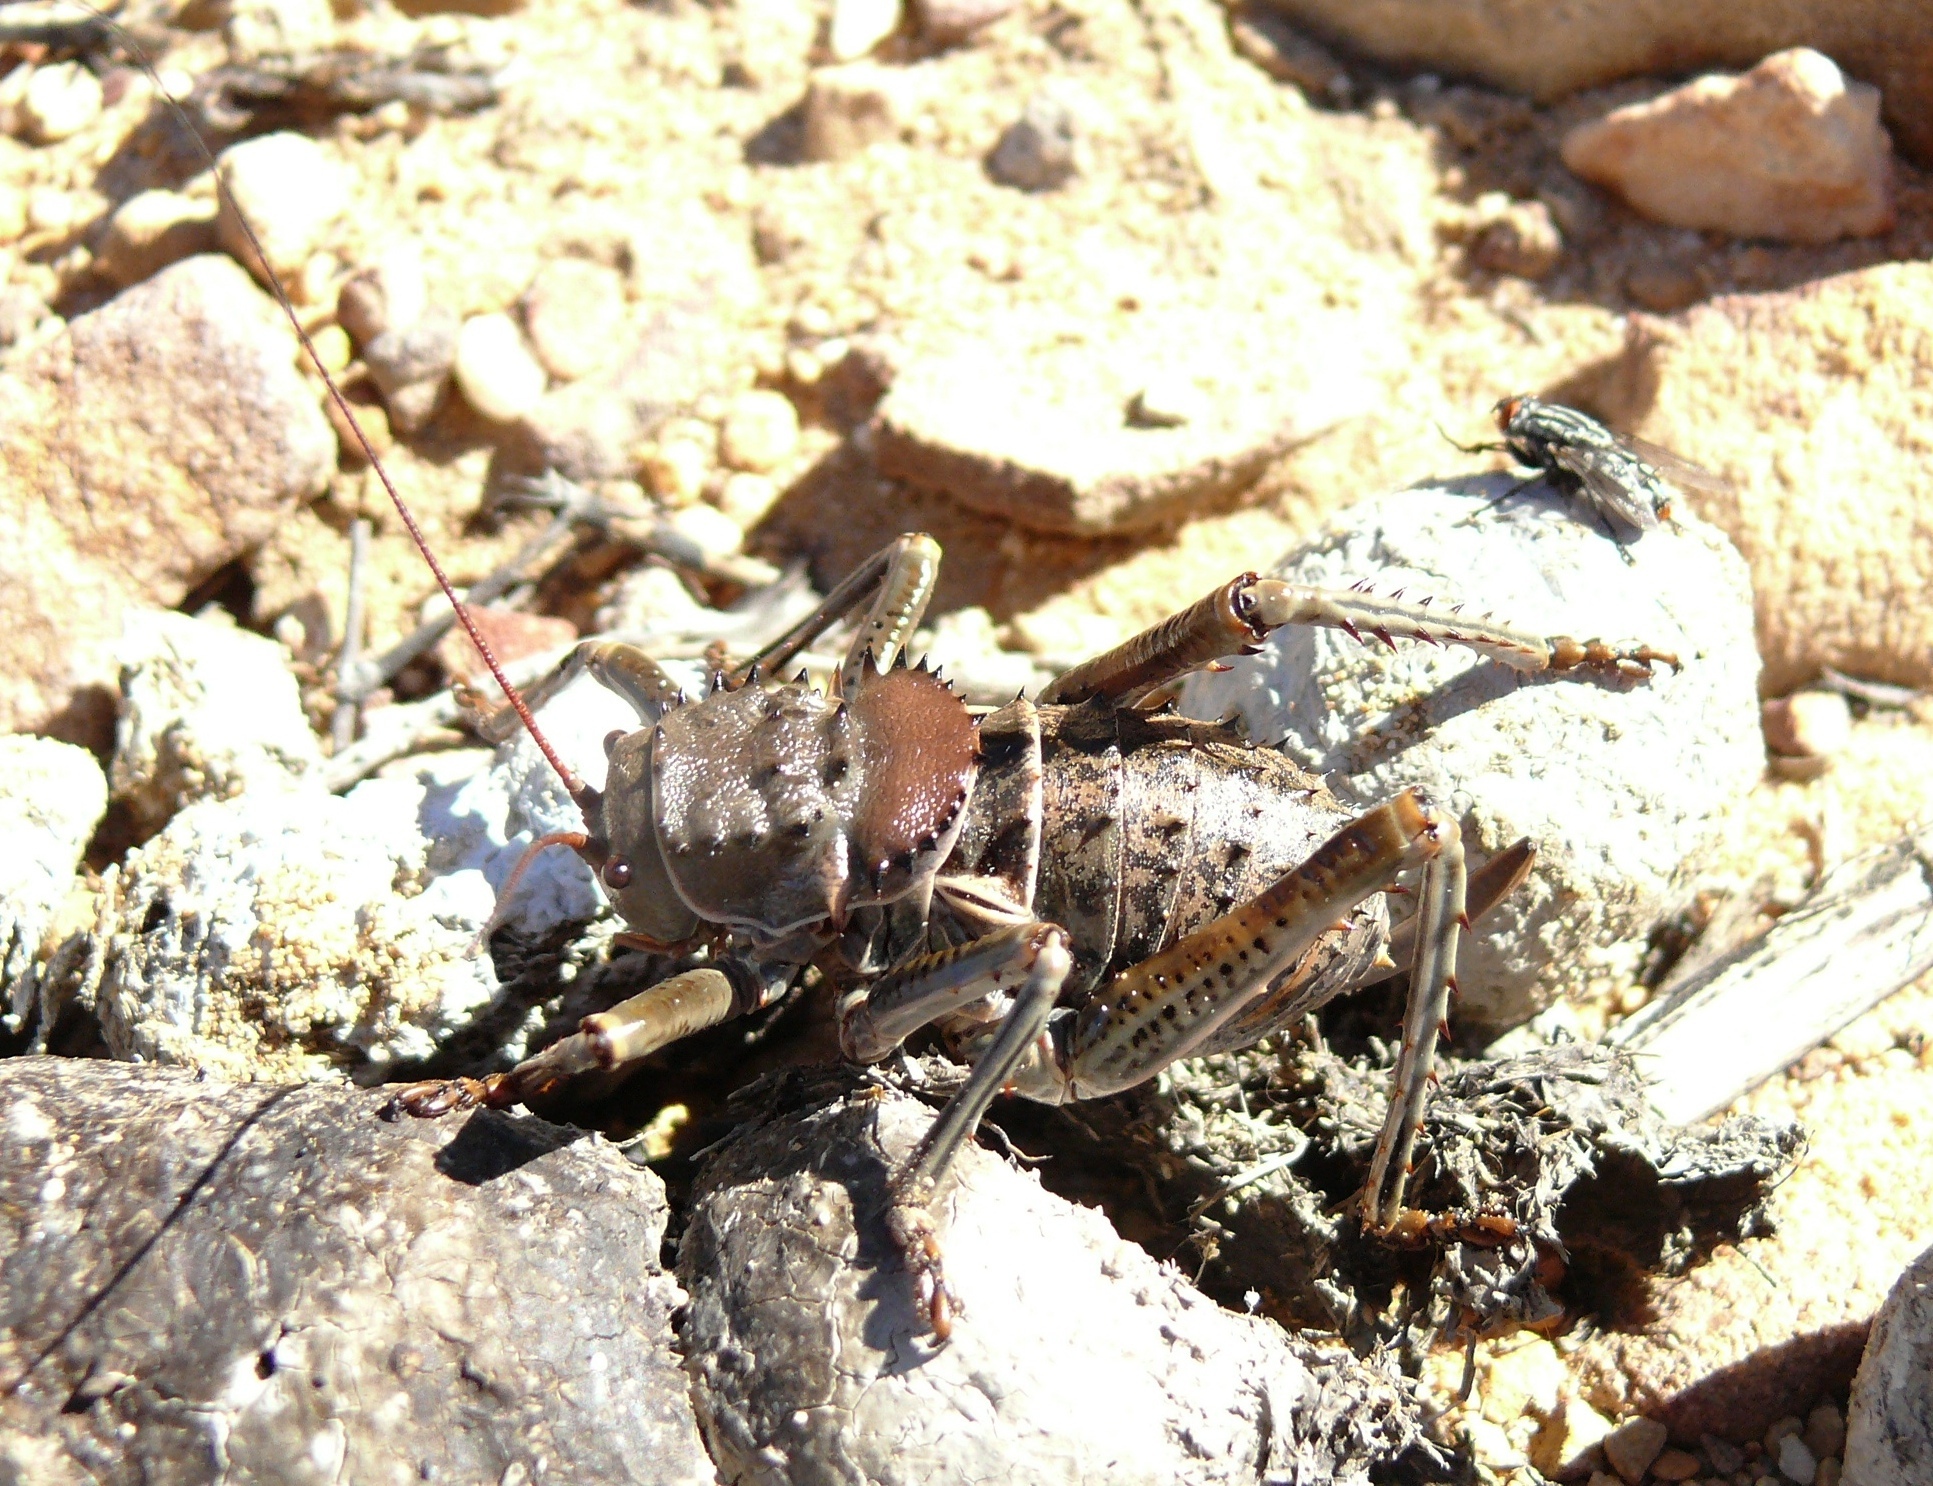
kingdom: Animalia
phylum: Arthropoda
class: Insecta
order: Orthoptera
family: Tettigoniidae
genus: Hetrodes
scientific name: Hetrodes pupus
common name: Koringkriek
